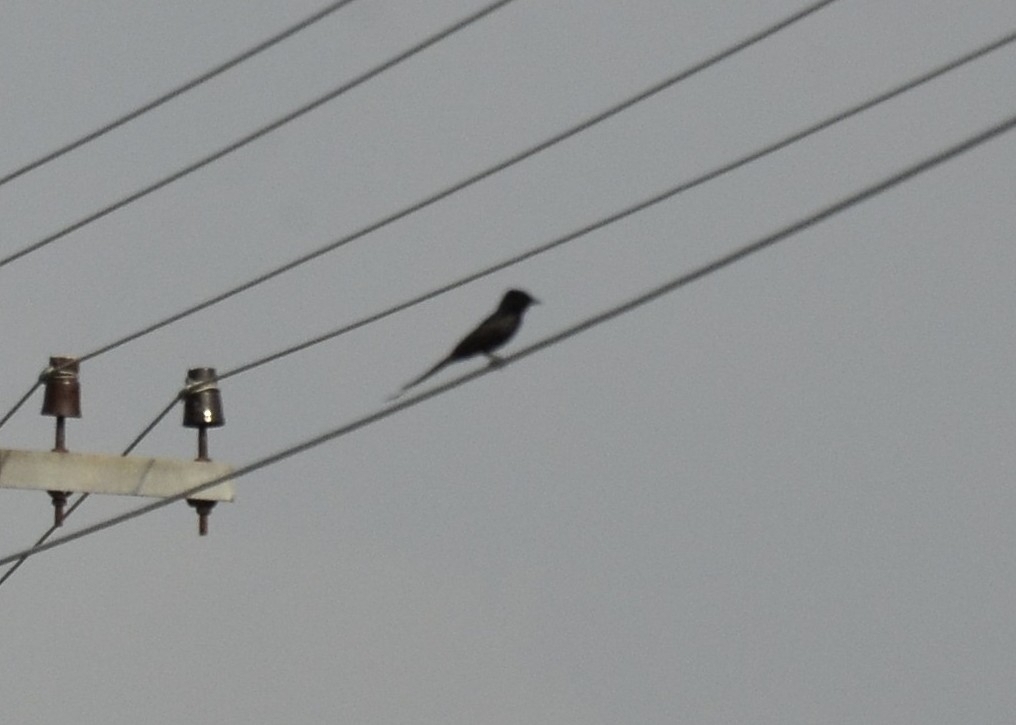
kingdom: Animalia
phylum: Chordata
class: Aves
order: Passeriformes
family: Dicruridae
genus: Dicrurus
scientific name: Dicrurus macrocercus
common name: Black drongo
